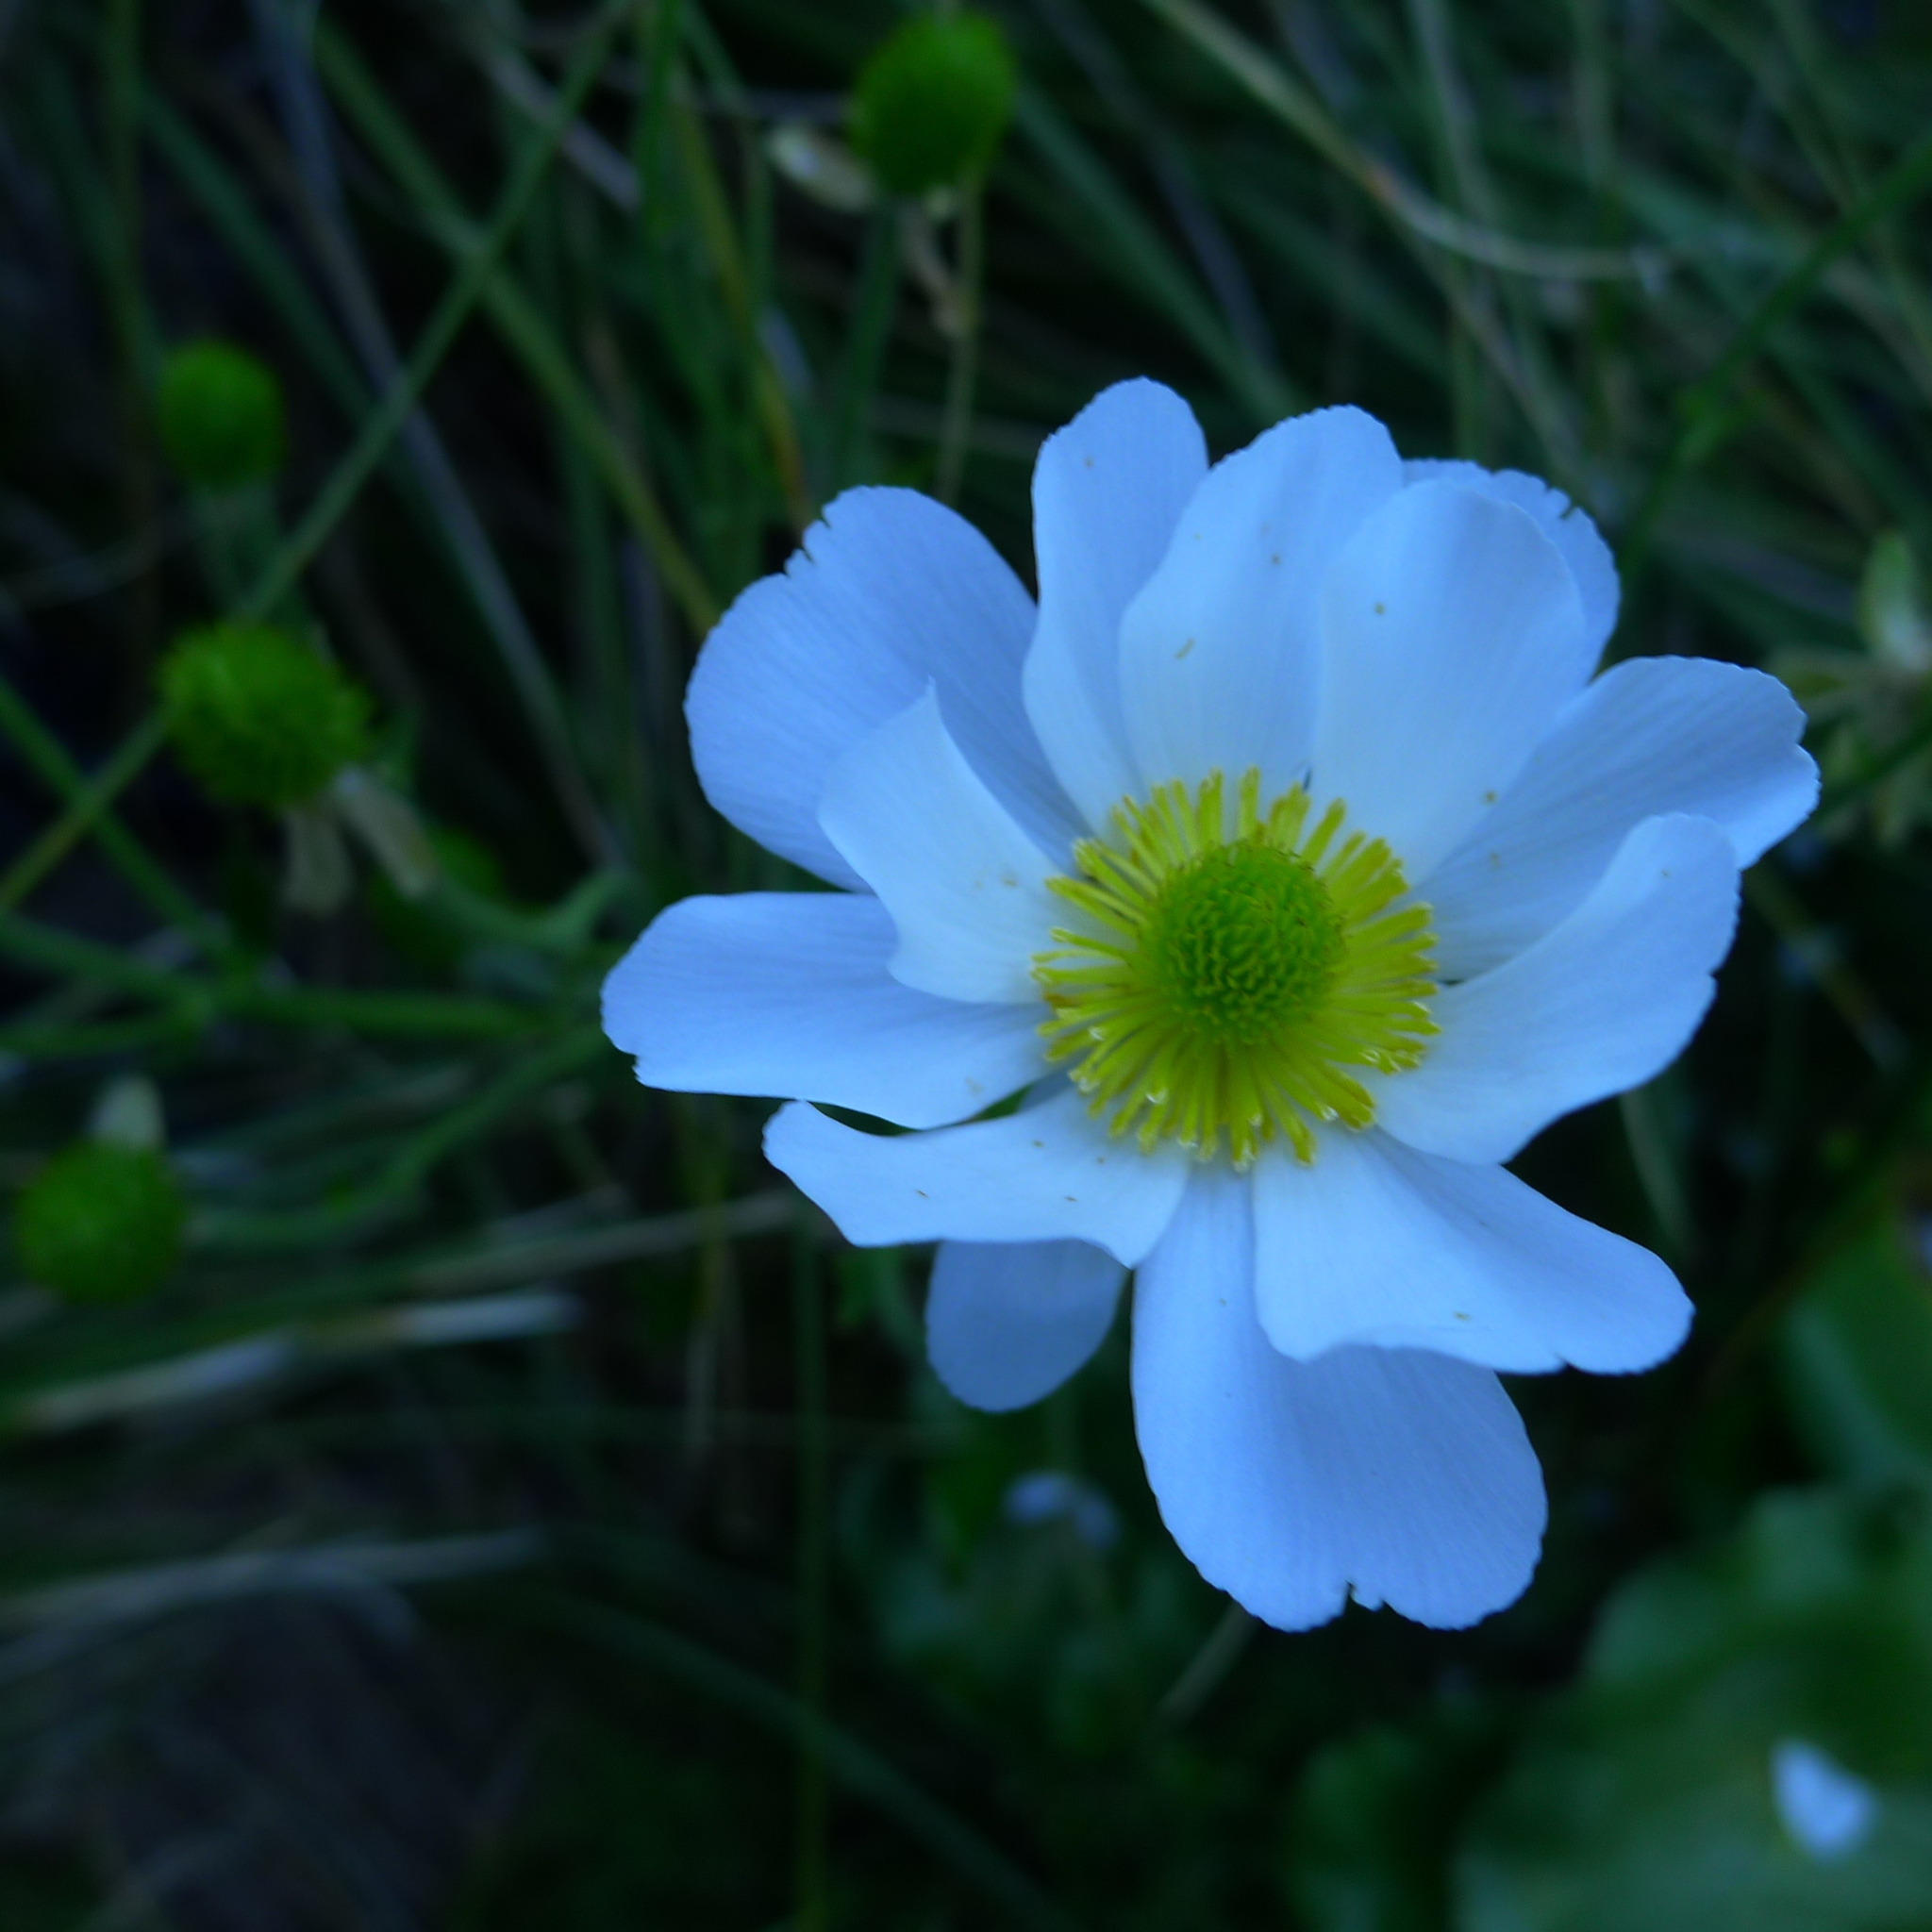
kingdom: Plantae
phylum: Tracheophyta
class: Magnoliopsida
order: Ranunculales
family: Ranunculaceae
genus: Ranunculus
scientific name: Ranunculus lyallii
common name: Mountain-lily
